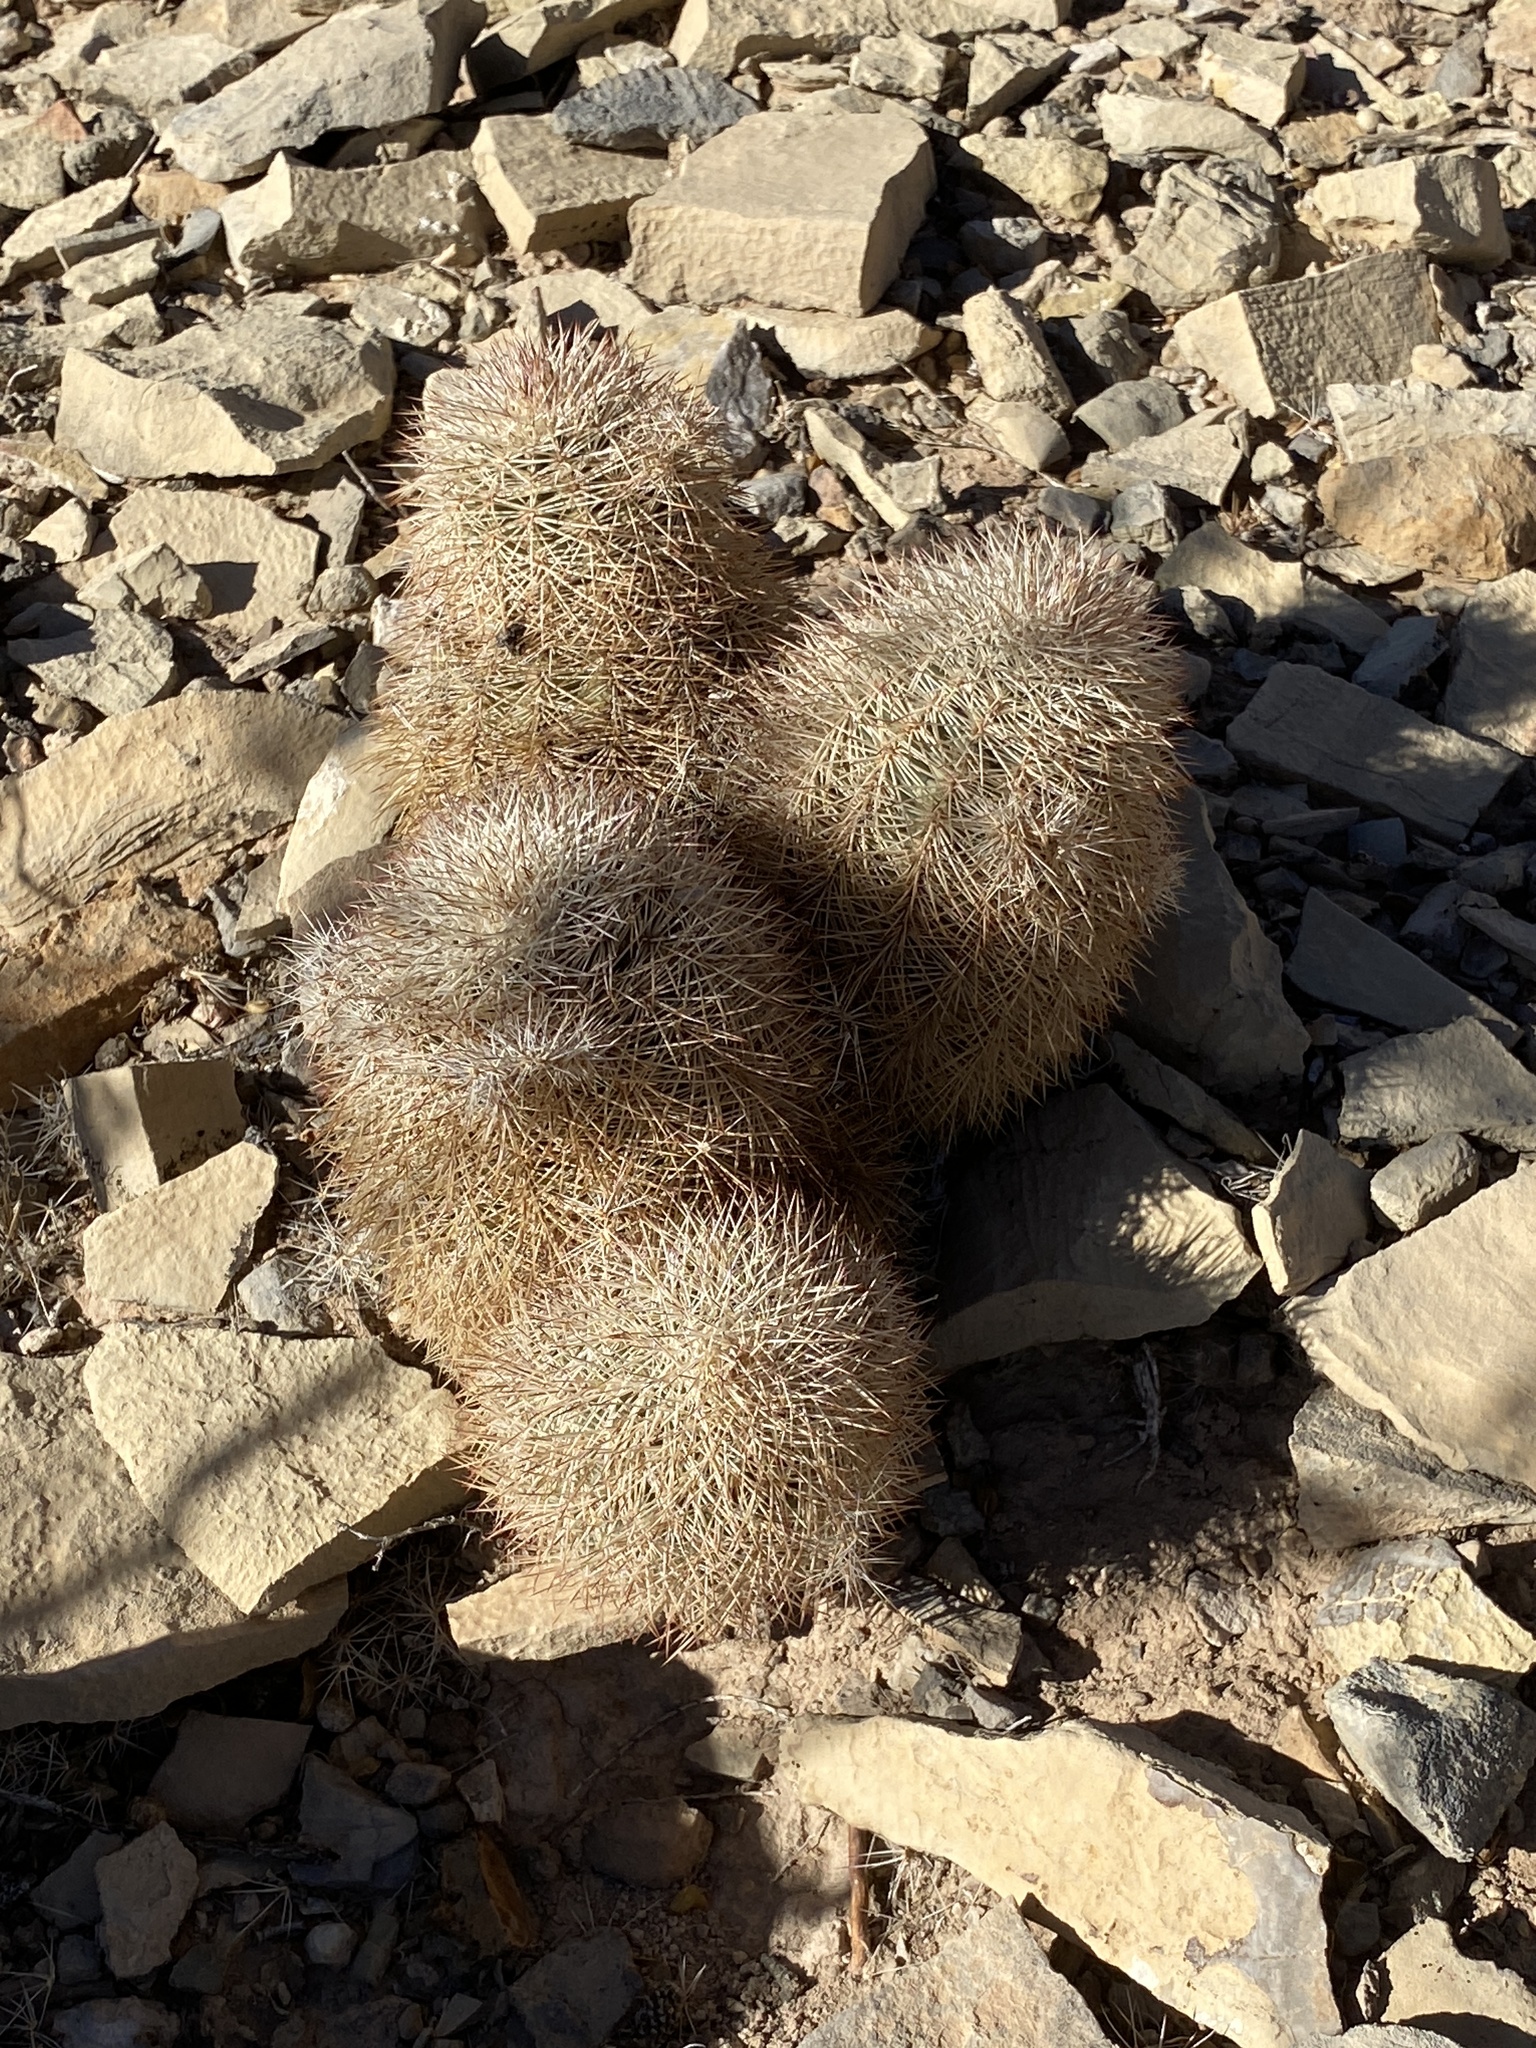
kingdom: Plantae
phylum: Tracheophyta
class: Magnoliopsida
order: Caryophyllales
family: Cactaceae
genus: Echinocereus
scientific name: Echinocereus dasyacanthus
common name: Spiny hedgehog cactus
